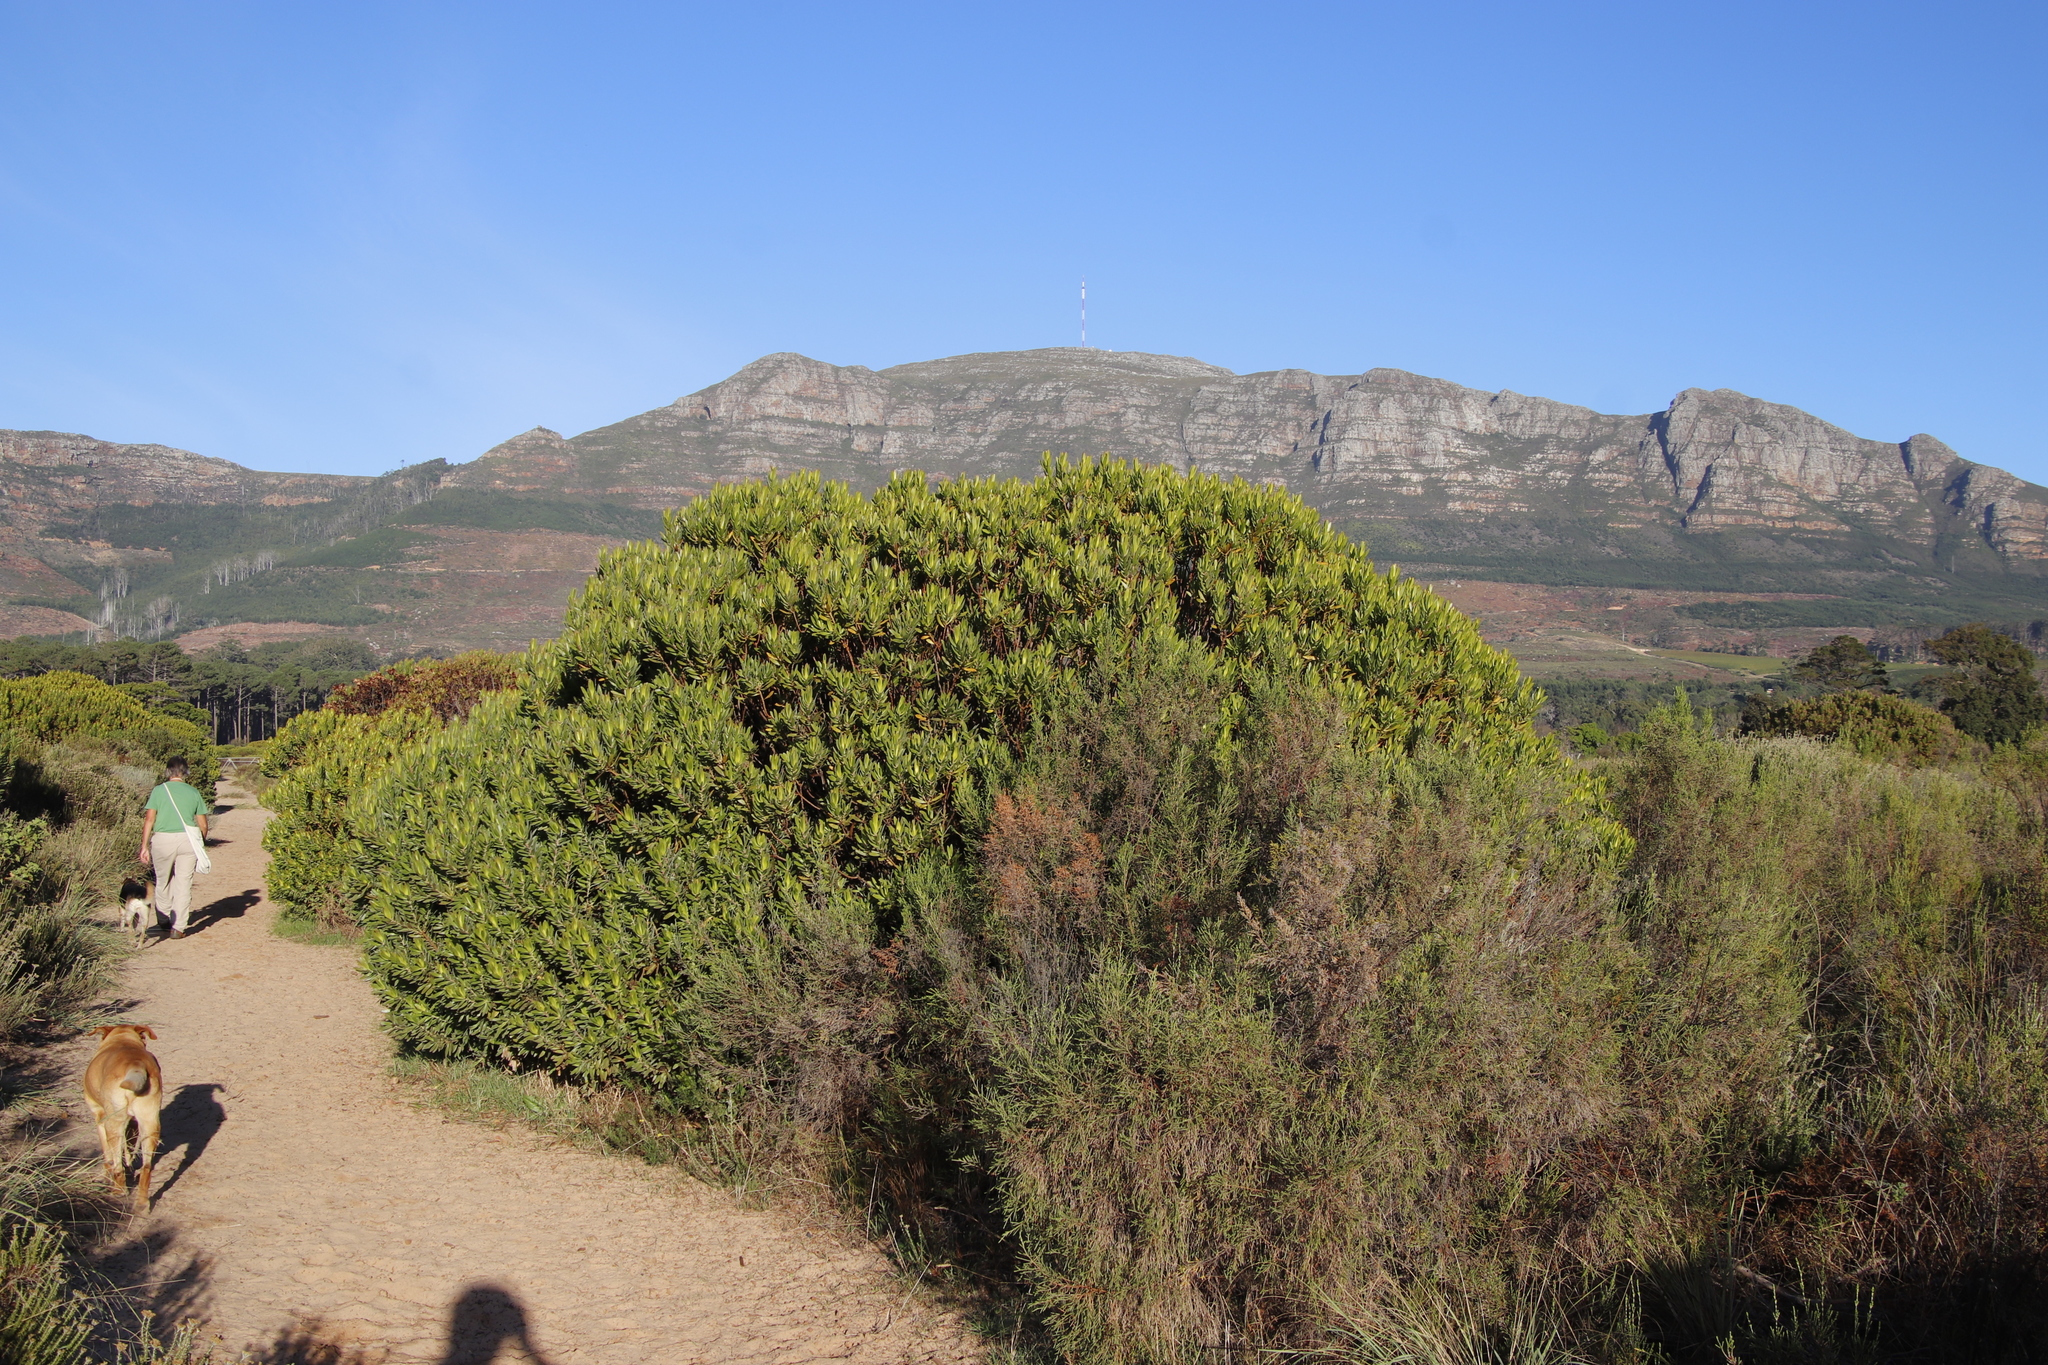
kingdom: Plantae
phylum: Tracheophyta
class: Magnoliopsida
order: Proteales
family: Proteaceae
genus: Leucadendron
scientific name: Leucadendron laureolum
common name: Golden sunshinebush
